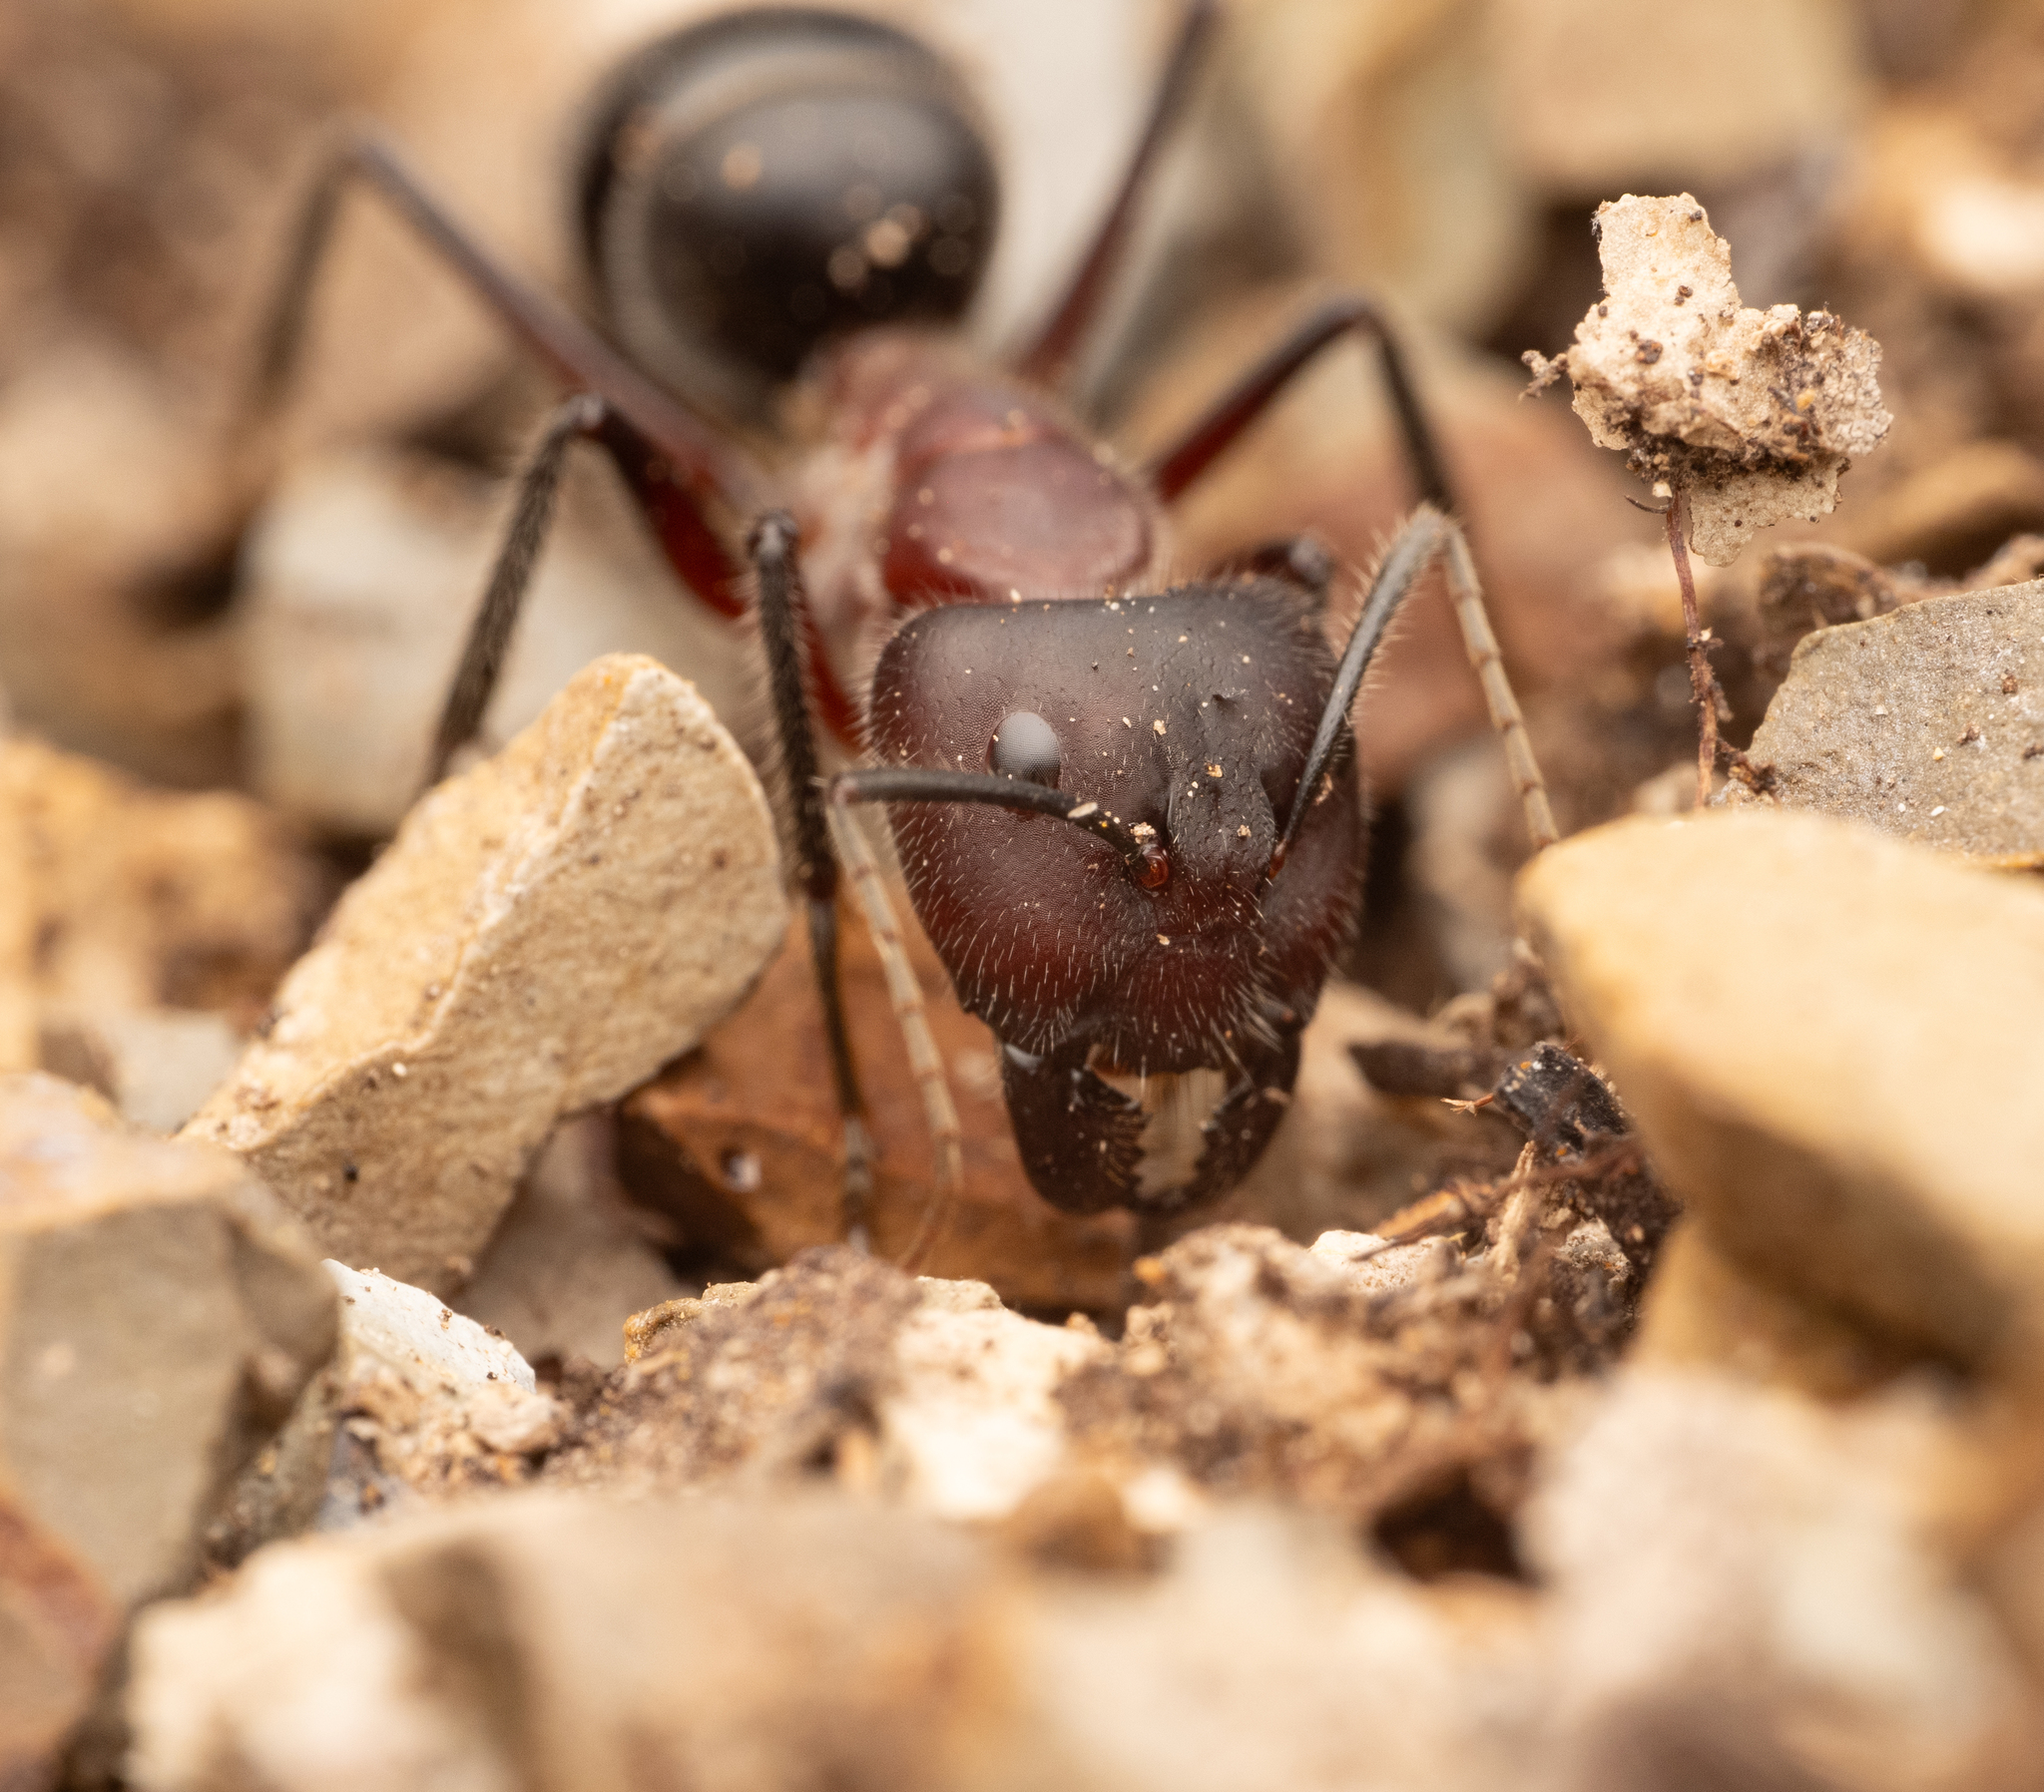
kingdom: Animalia
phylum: Arthropoda
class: Insecta
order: Hymenoptera
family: Formicidae
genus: Camponotus
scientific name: Camponotus intrepidus
